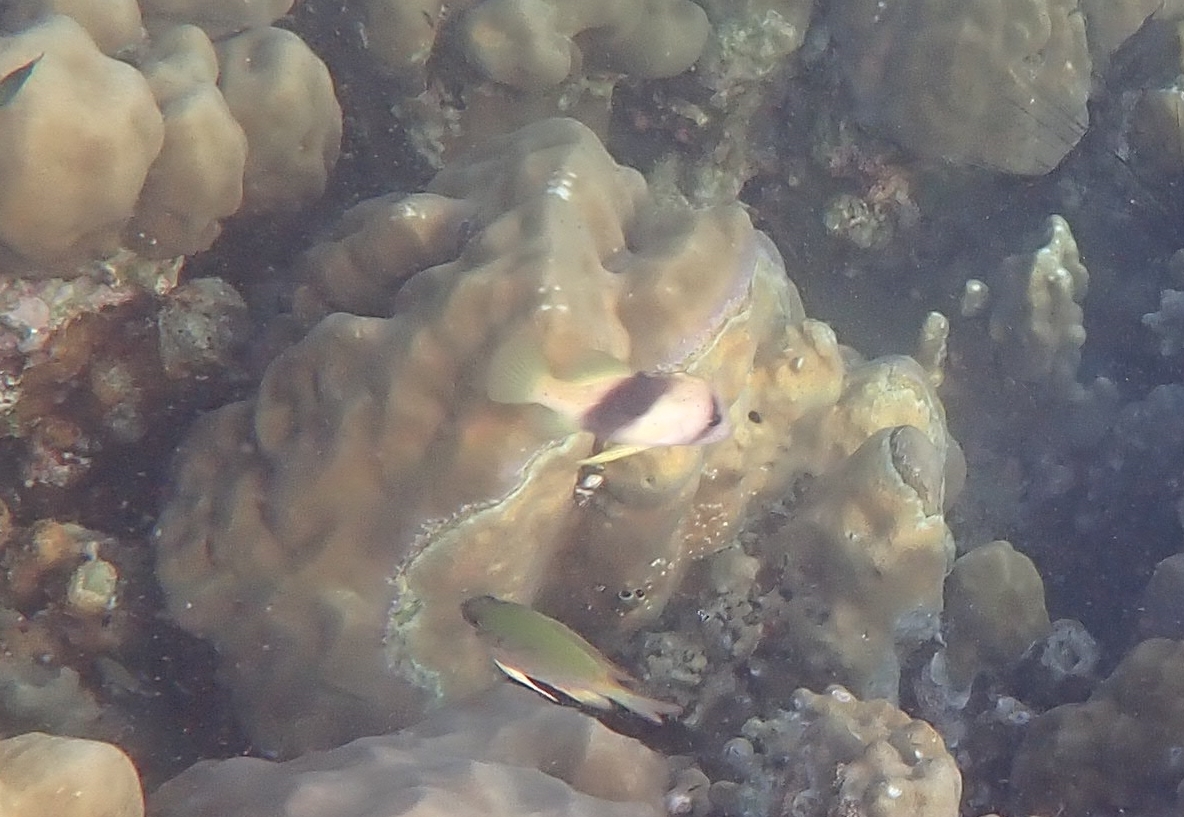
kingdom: Animalia
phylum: Chordata
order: Perciformes
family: Serranidae
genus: Diploprion
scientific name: Diploprion bifasciatum
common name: Barred soapfish
